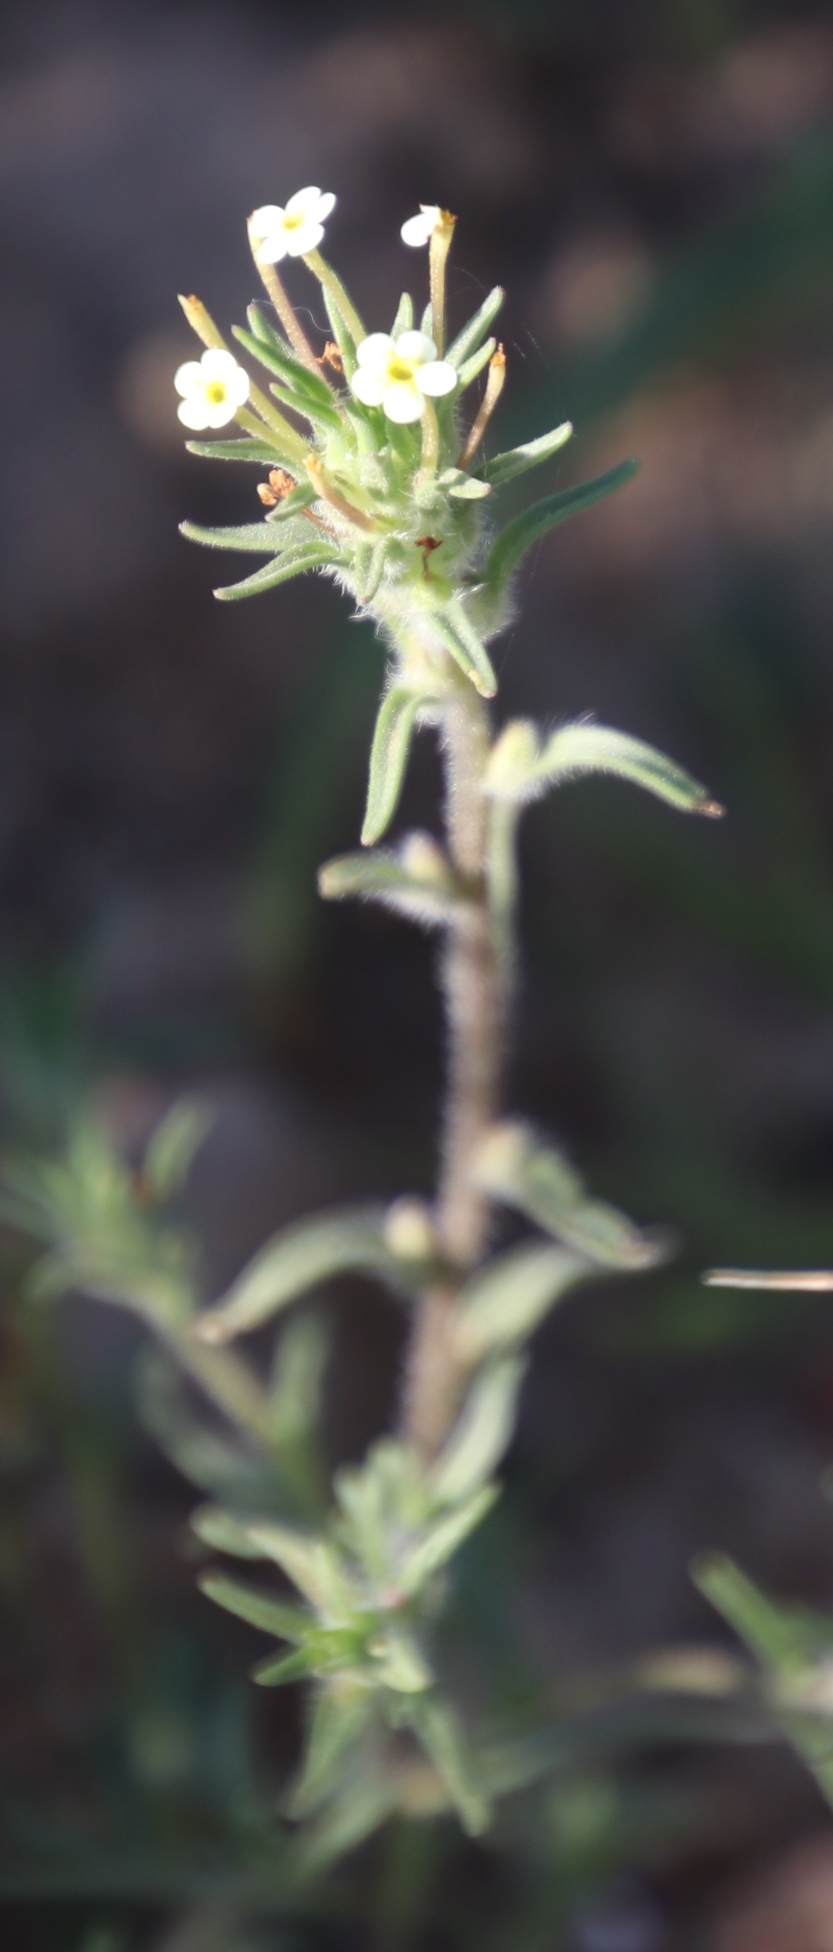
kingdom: Plantae
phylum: Tracheophyta
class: Magnoliopsida
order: Lamiales
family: Scrophulariaceae
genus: Zaluzianskya
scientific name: Zaluzianskya benthamiana
